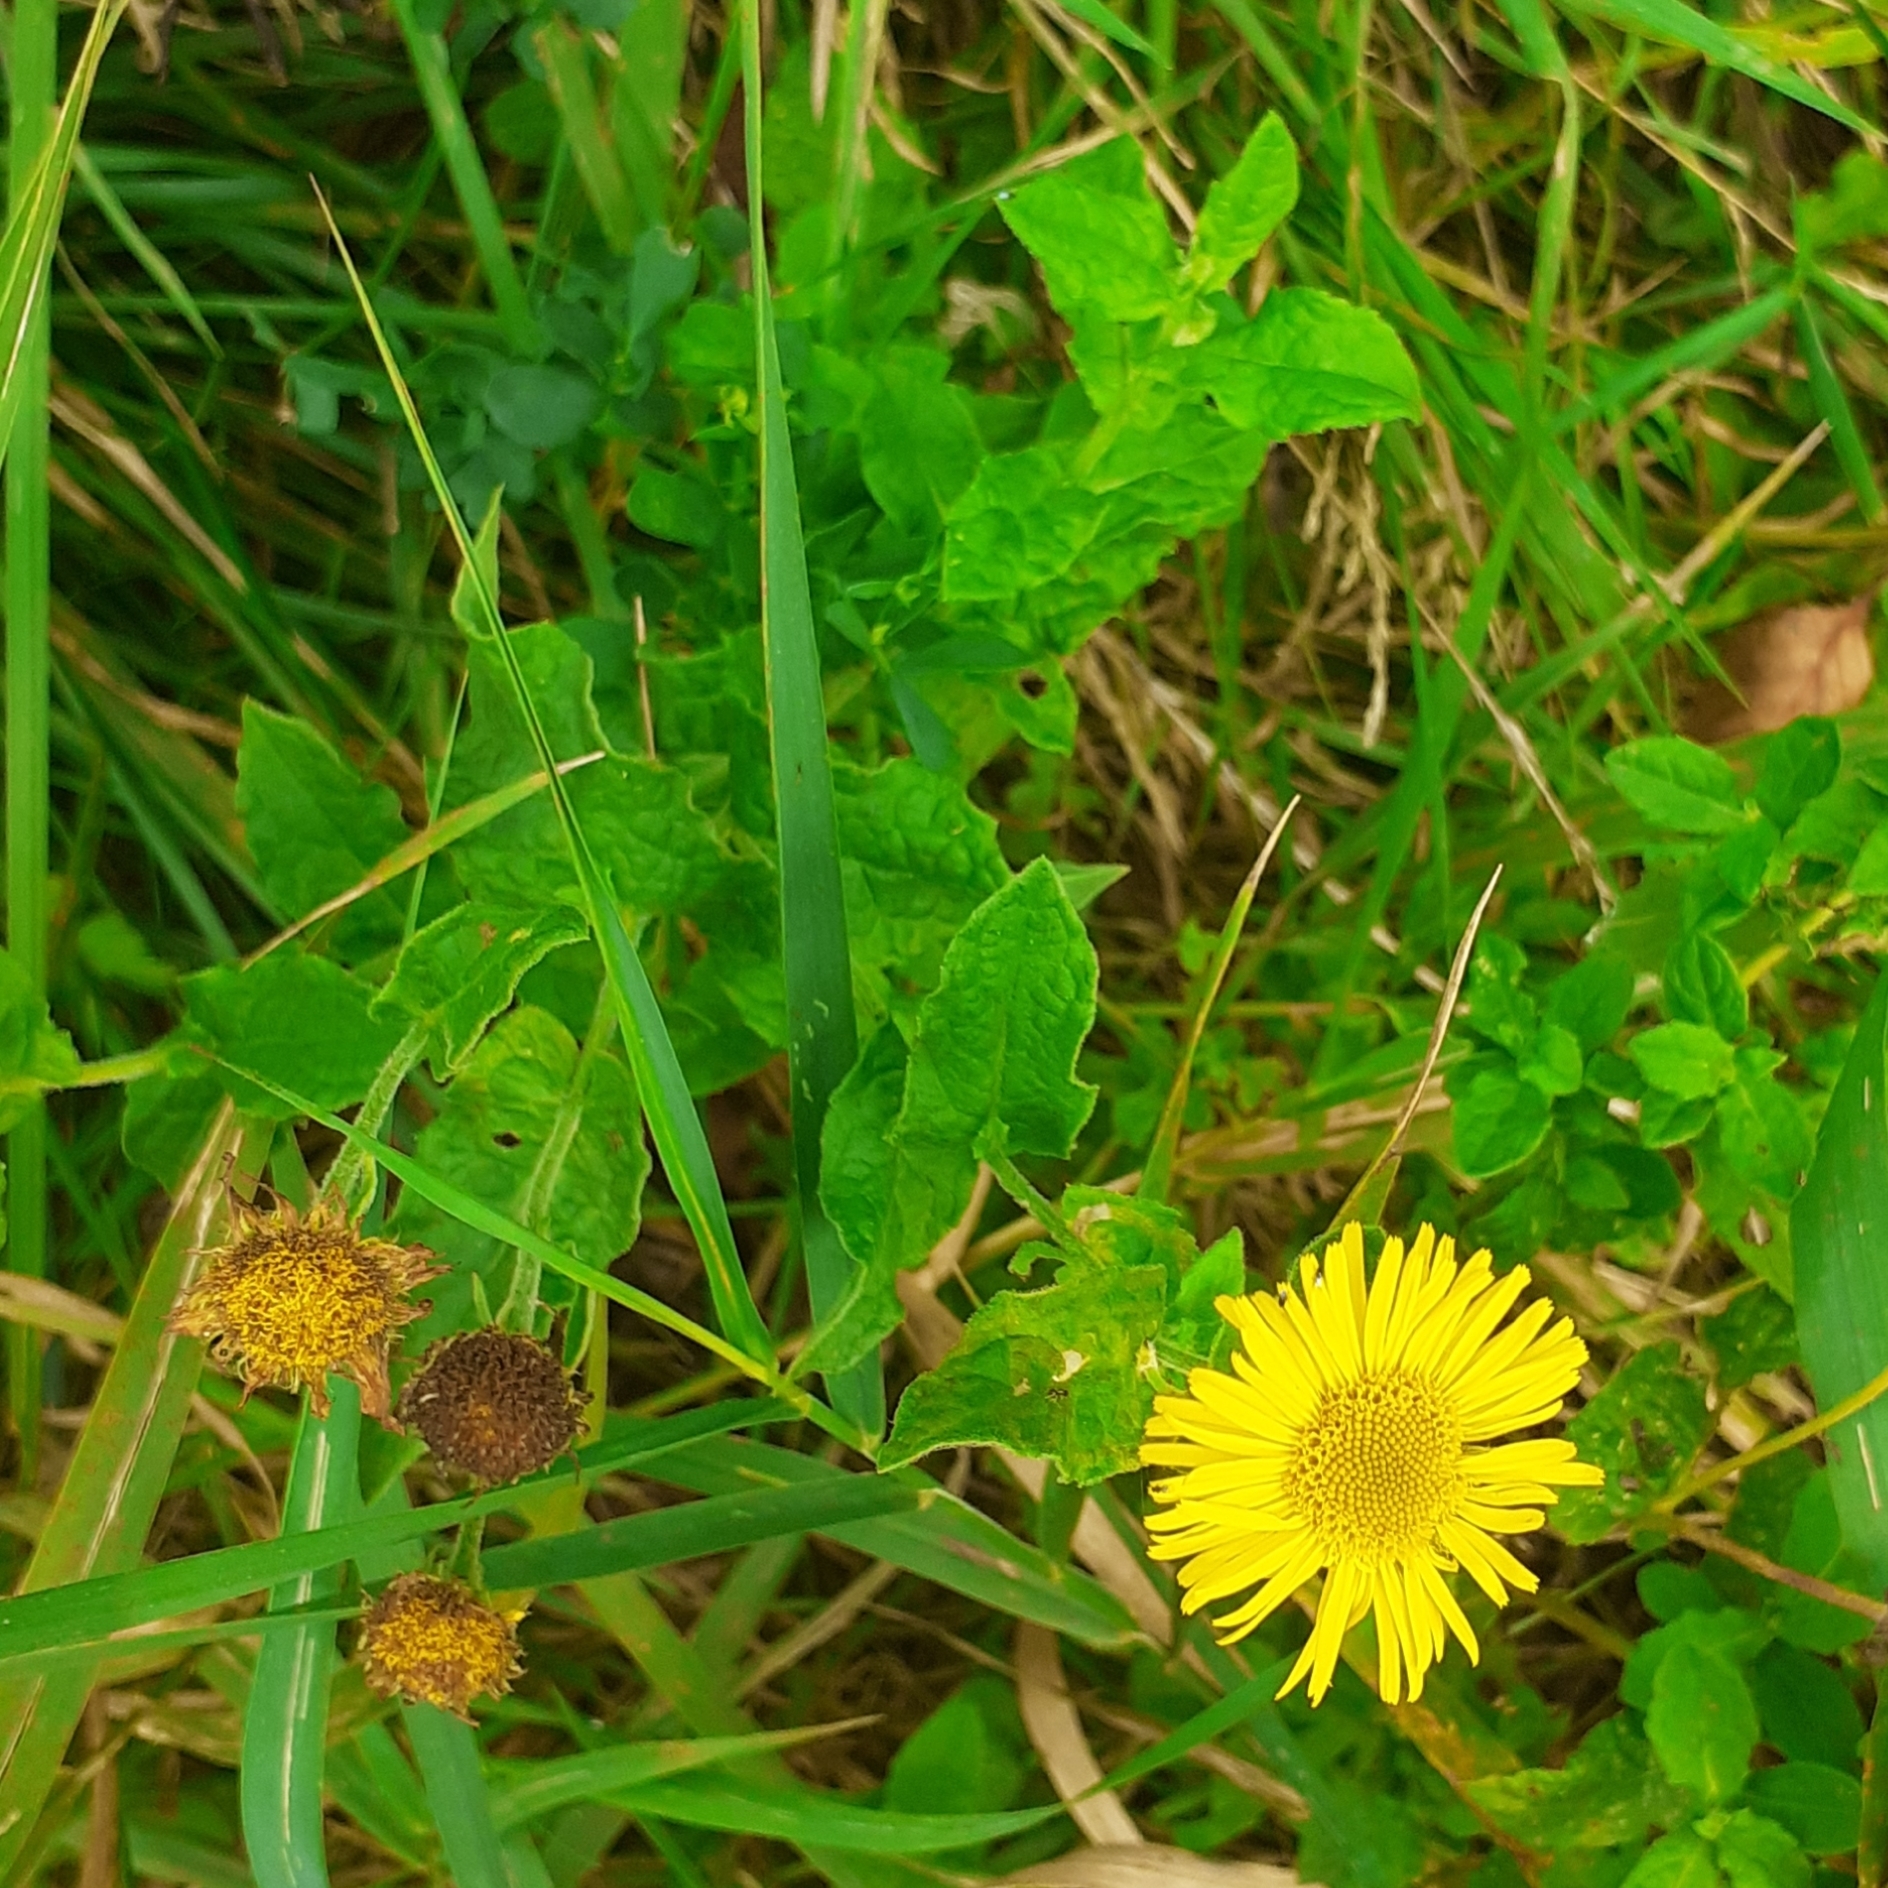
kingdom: Plantae
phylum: Tracheophyta
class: Magnoliopsida
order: Asterales
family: Asteraceae
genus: Pulicaria
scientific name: Pulicaria dysenterica
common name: Common fleabane
